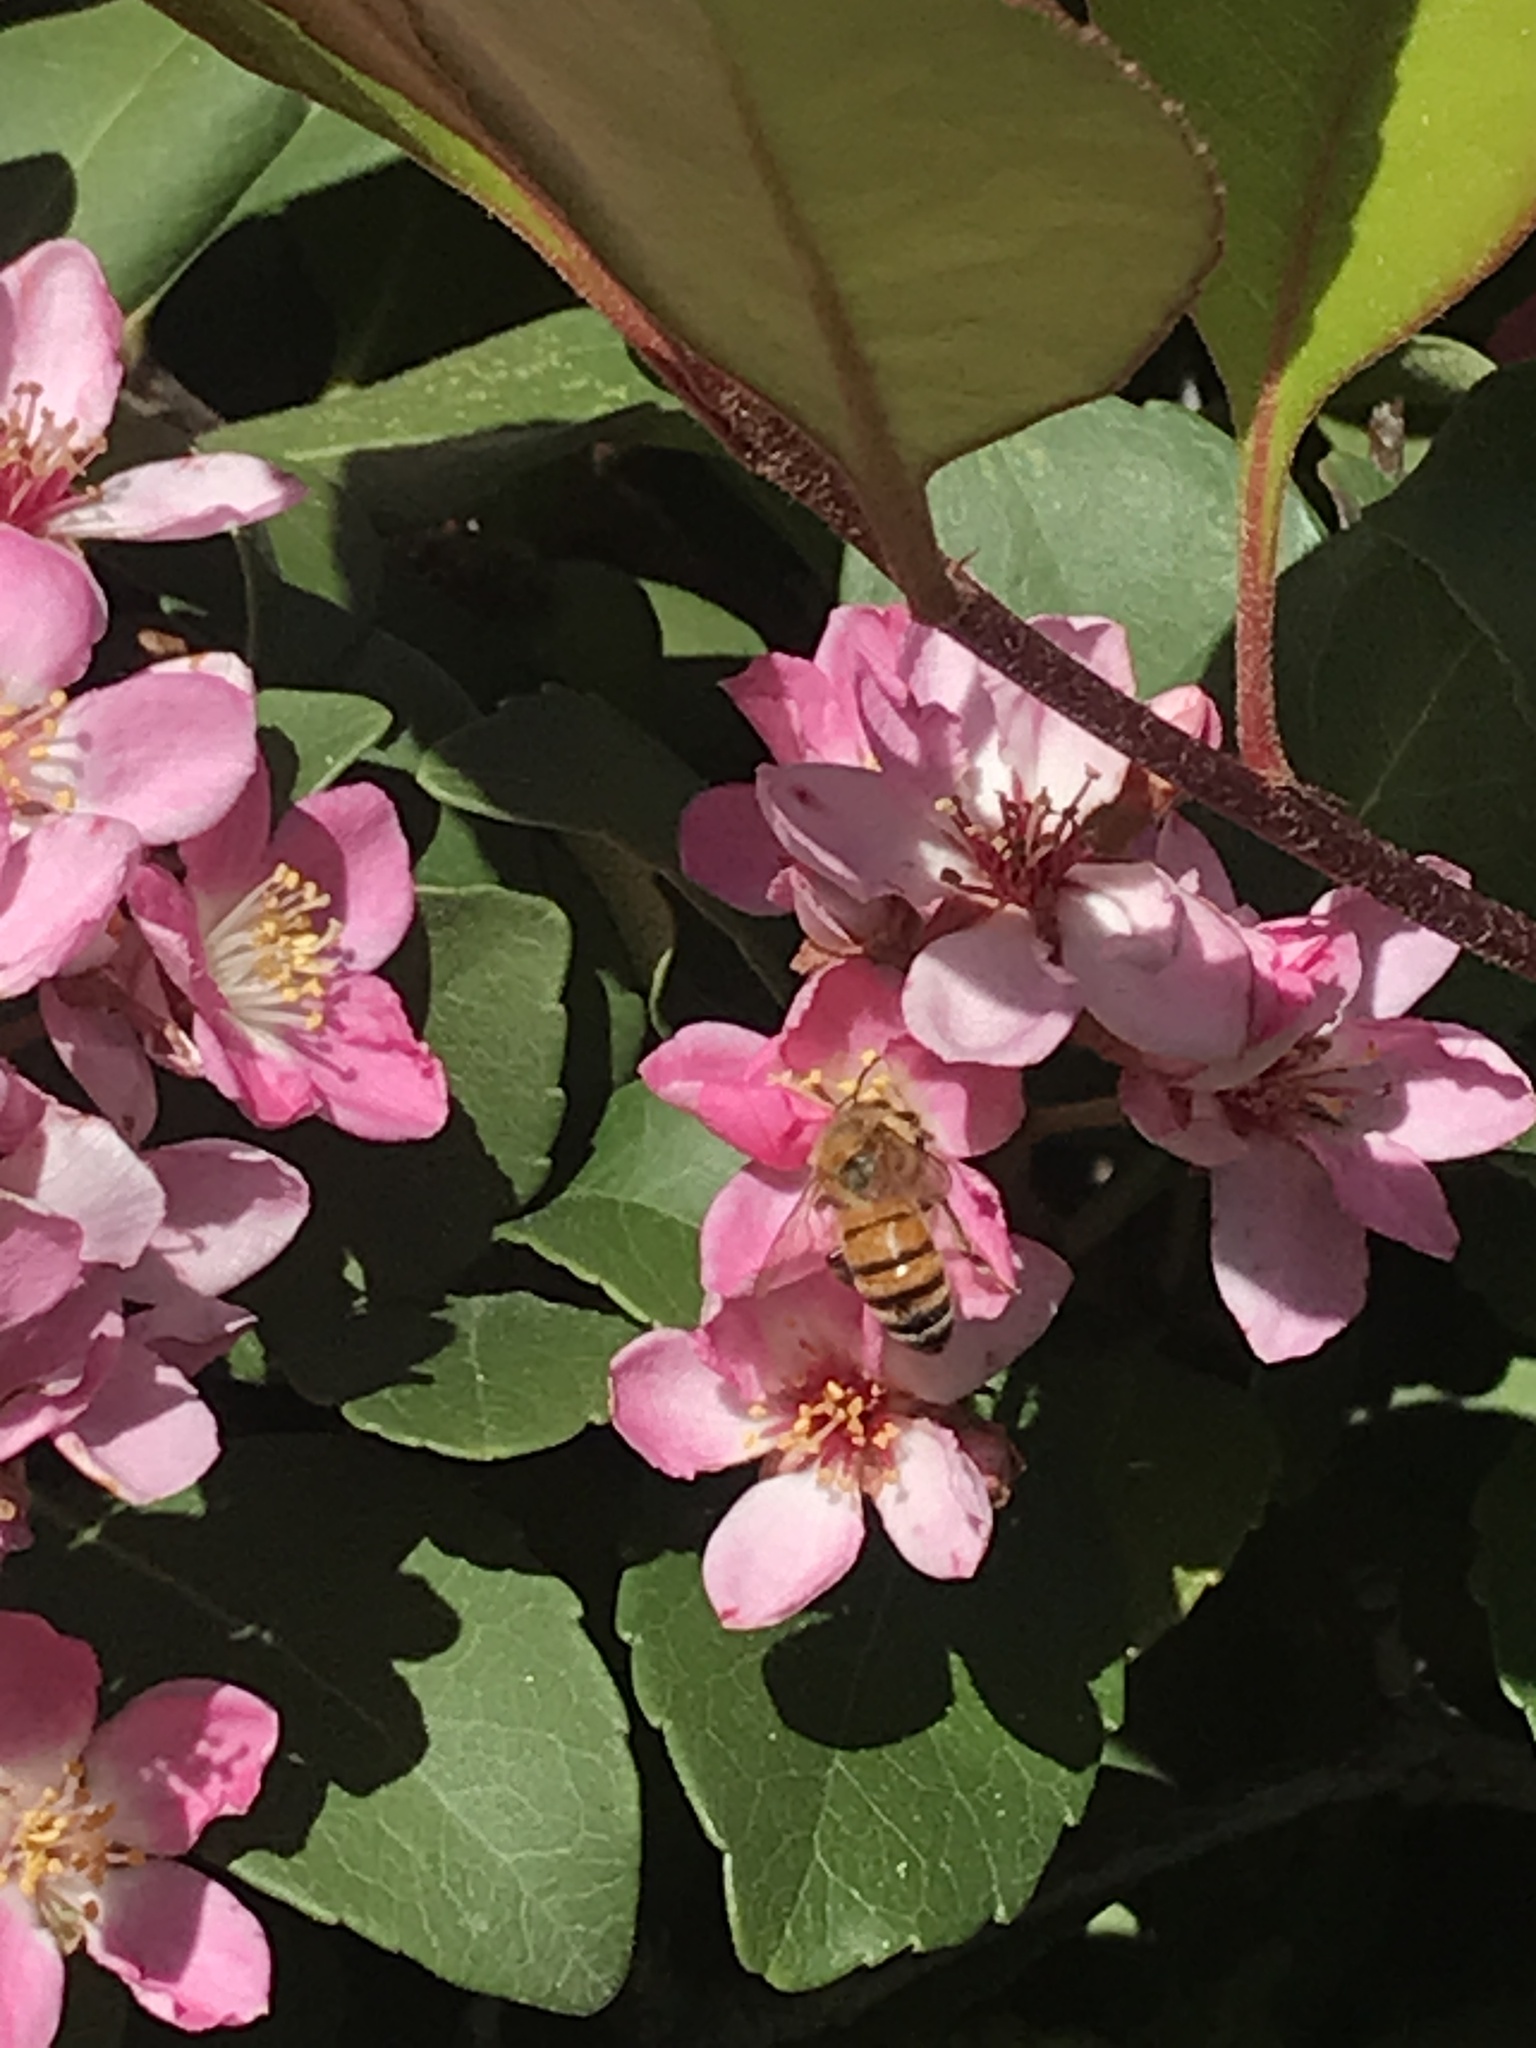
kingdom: Animalia
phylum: Arthropoda
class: Insecta
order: Hymenoptera
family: Apidae
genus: Apis
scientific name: Apis mellifera
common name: Honey bee
